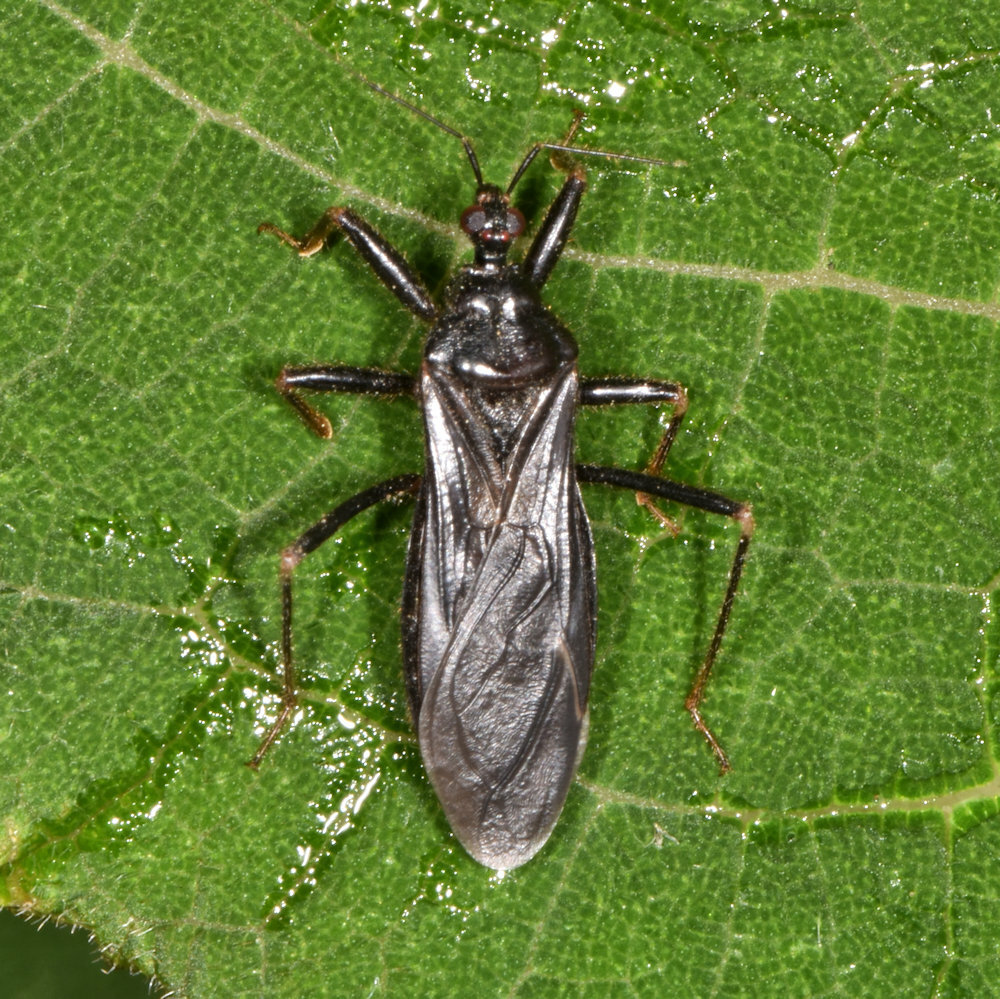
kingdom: Animalia
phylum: Arthropoda
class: Insecta
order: Hemiptera
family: Reduviidae
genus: Reduvius
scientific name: Reduvius personatus
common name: Masked hunter
